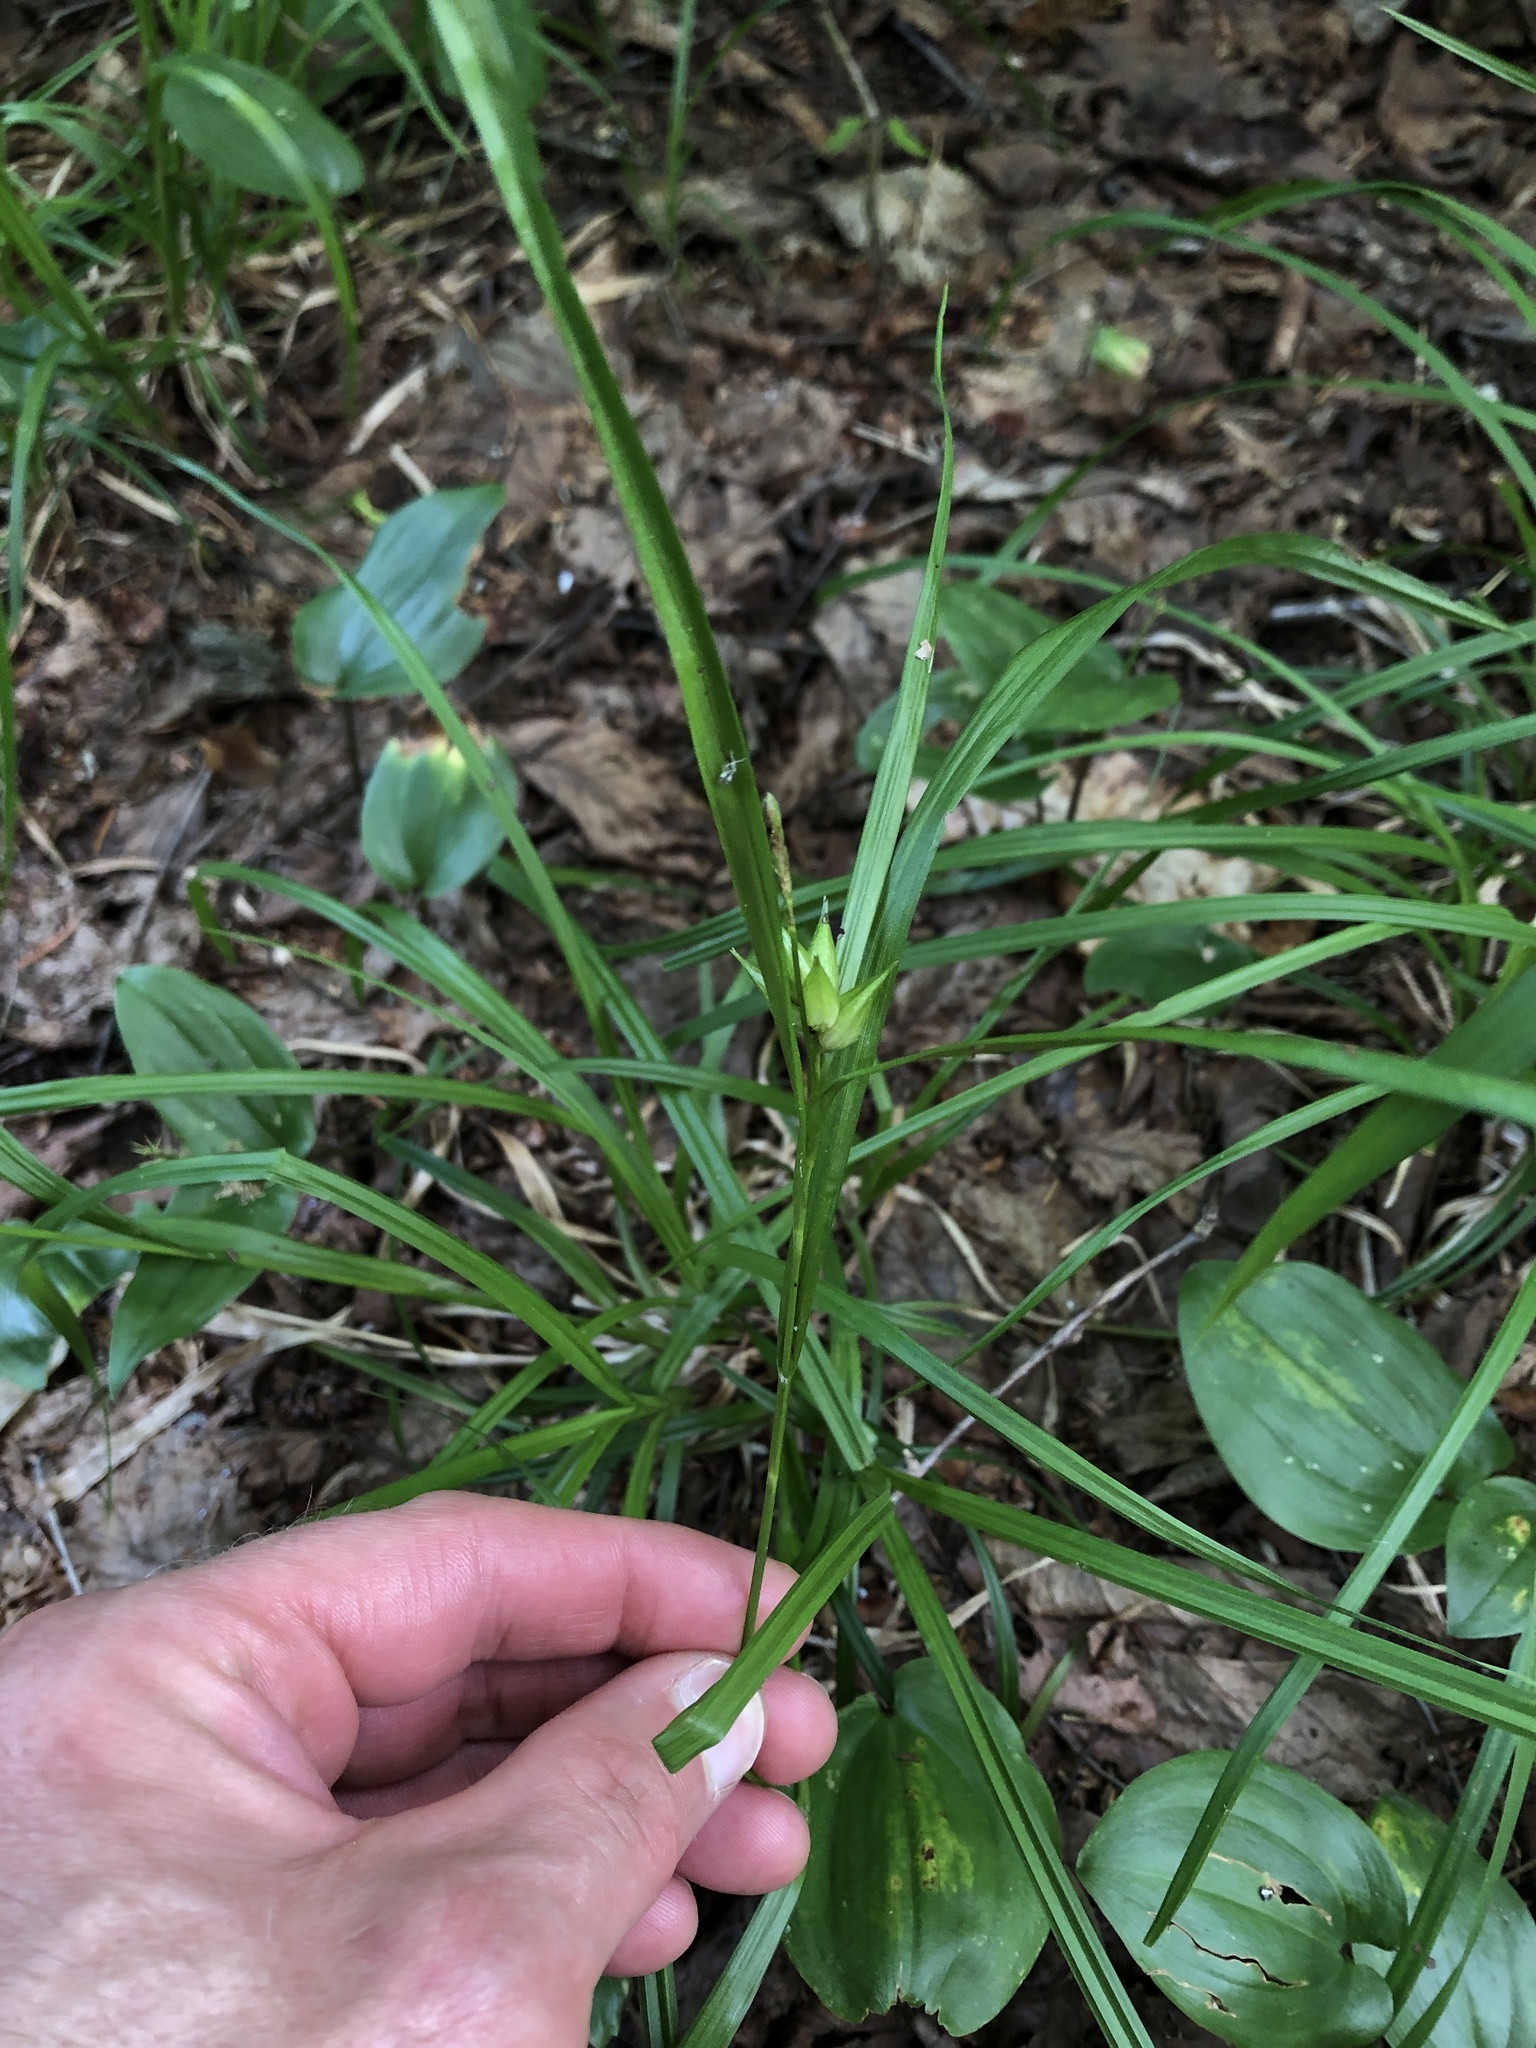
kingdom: Plantae
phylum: Tracheophyta
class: Liliopsida
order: Poales
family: Cyperaceae
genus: Carex
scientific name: Carex intumescens
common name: Greater bladder sedge
